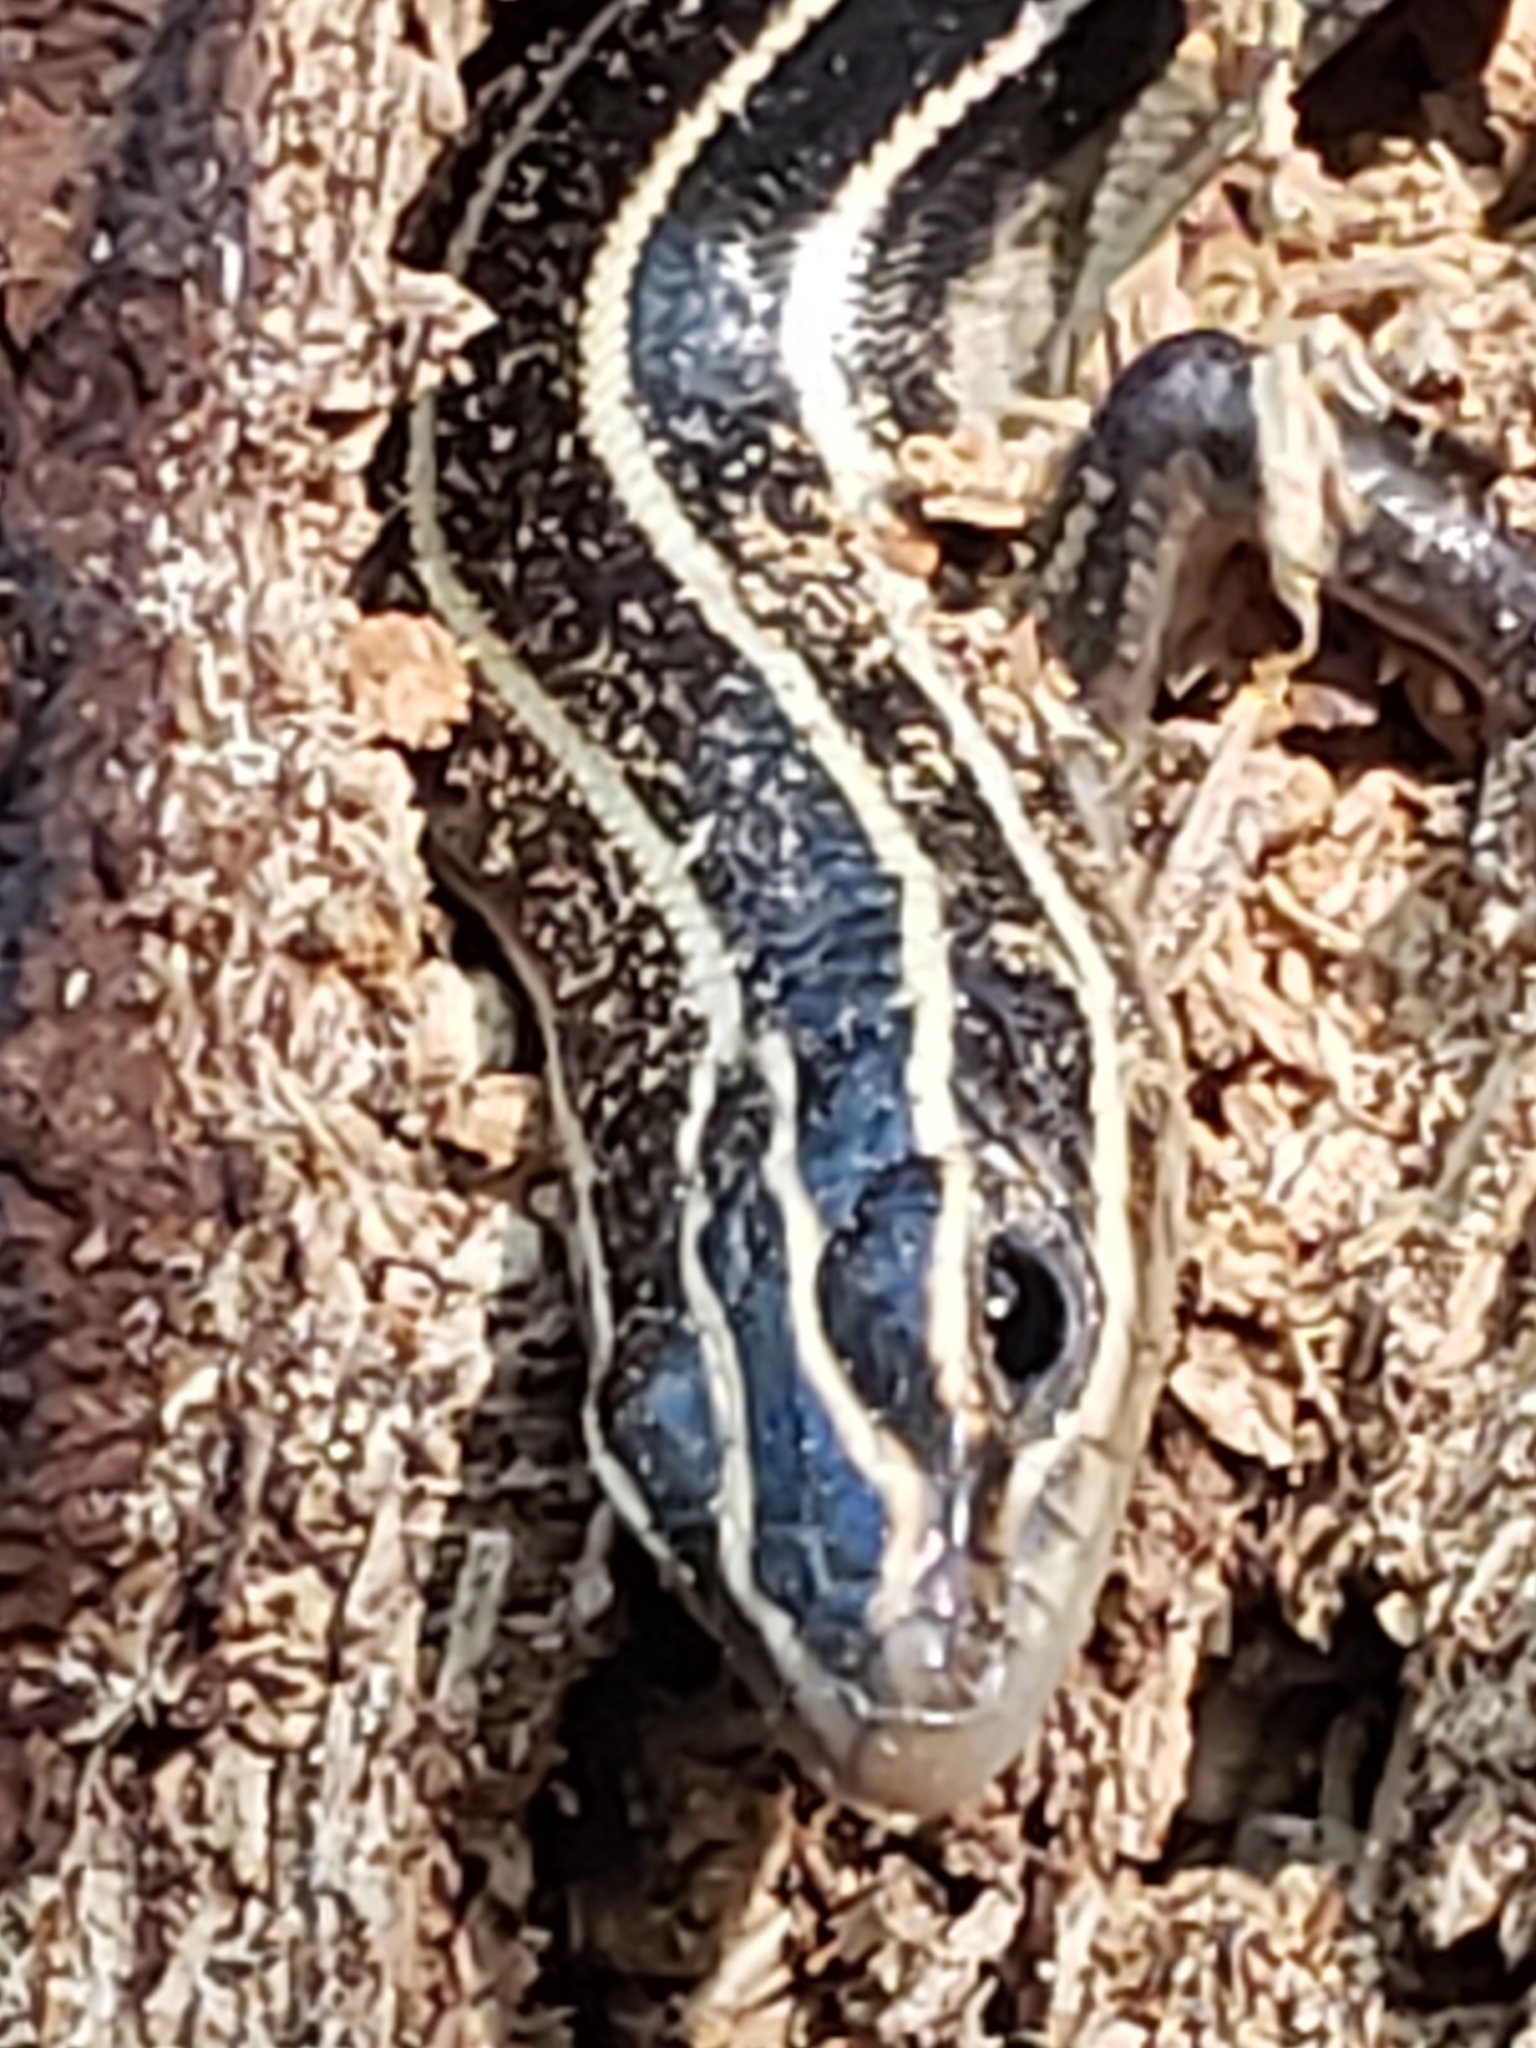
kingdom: Animalia
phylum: Chordata
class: Squamata
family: Scincidae
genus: Plestiodon
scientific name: Plestiodon fasciatus
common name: Five-lined skink
